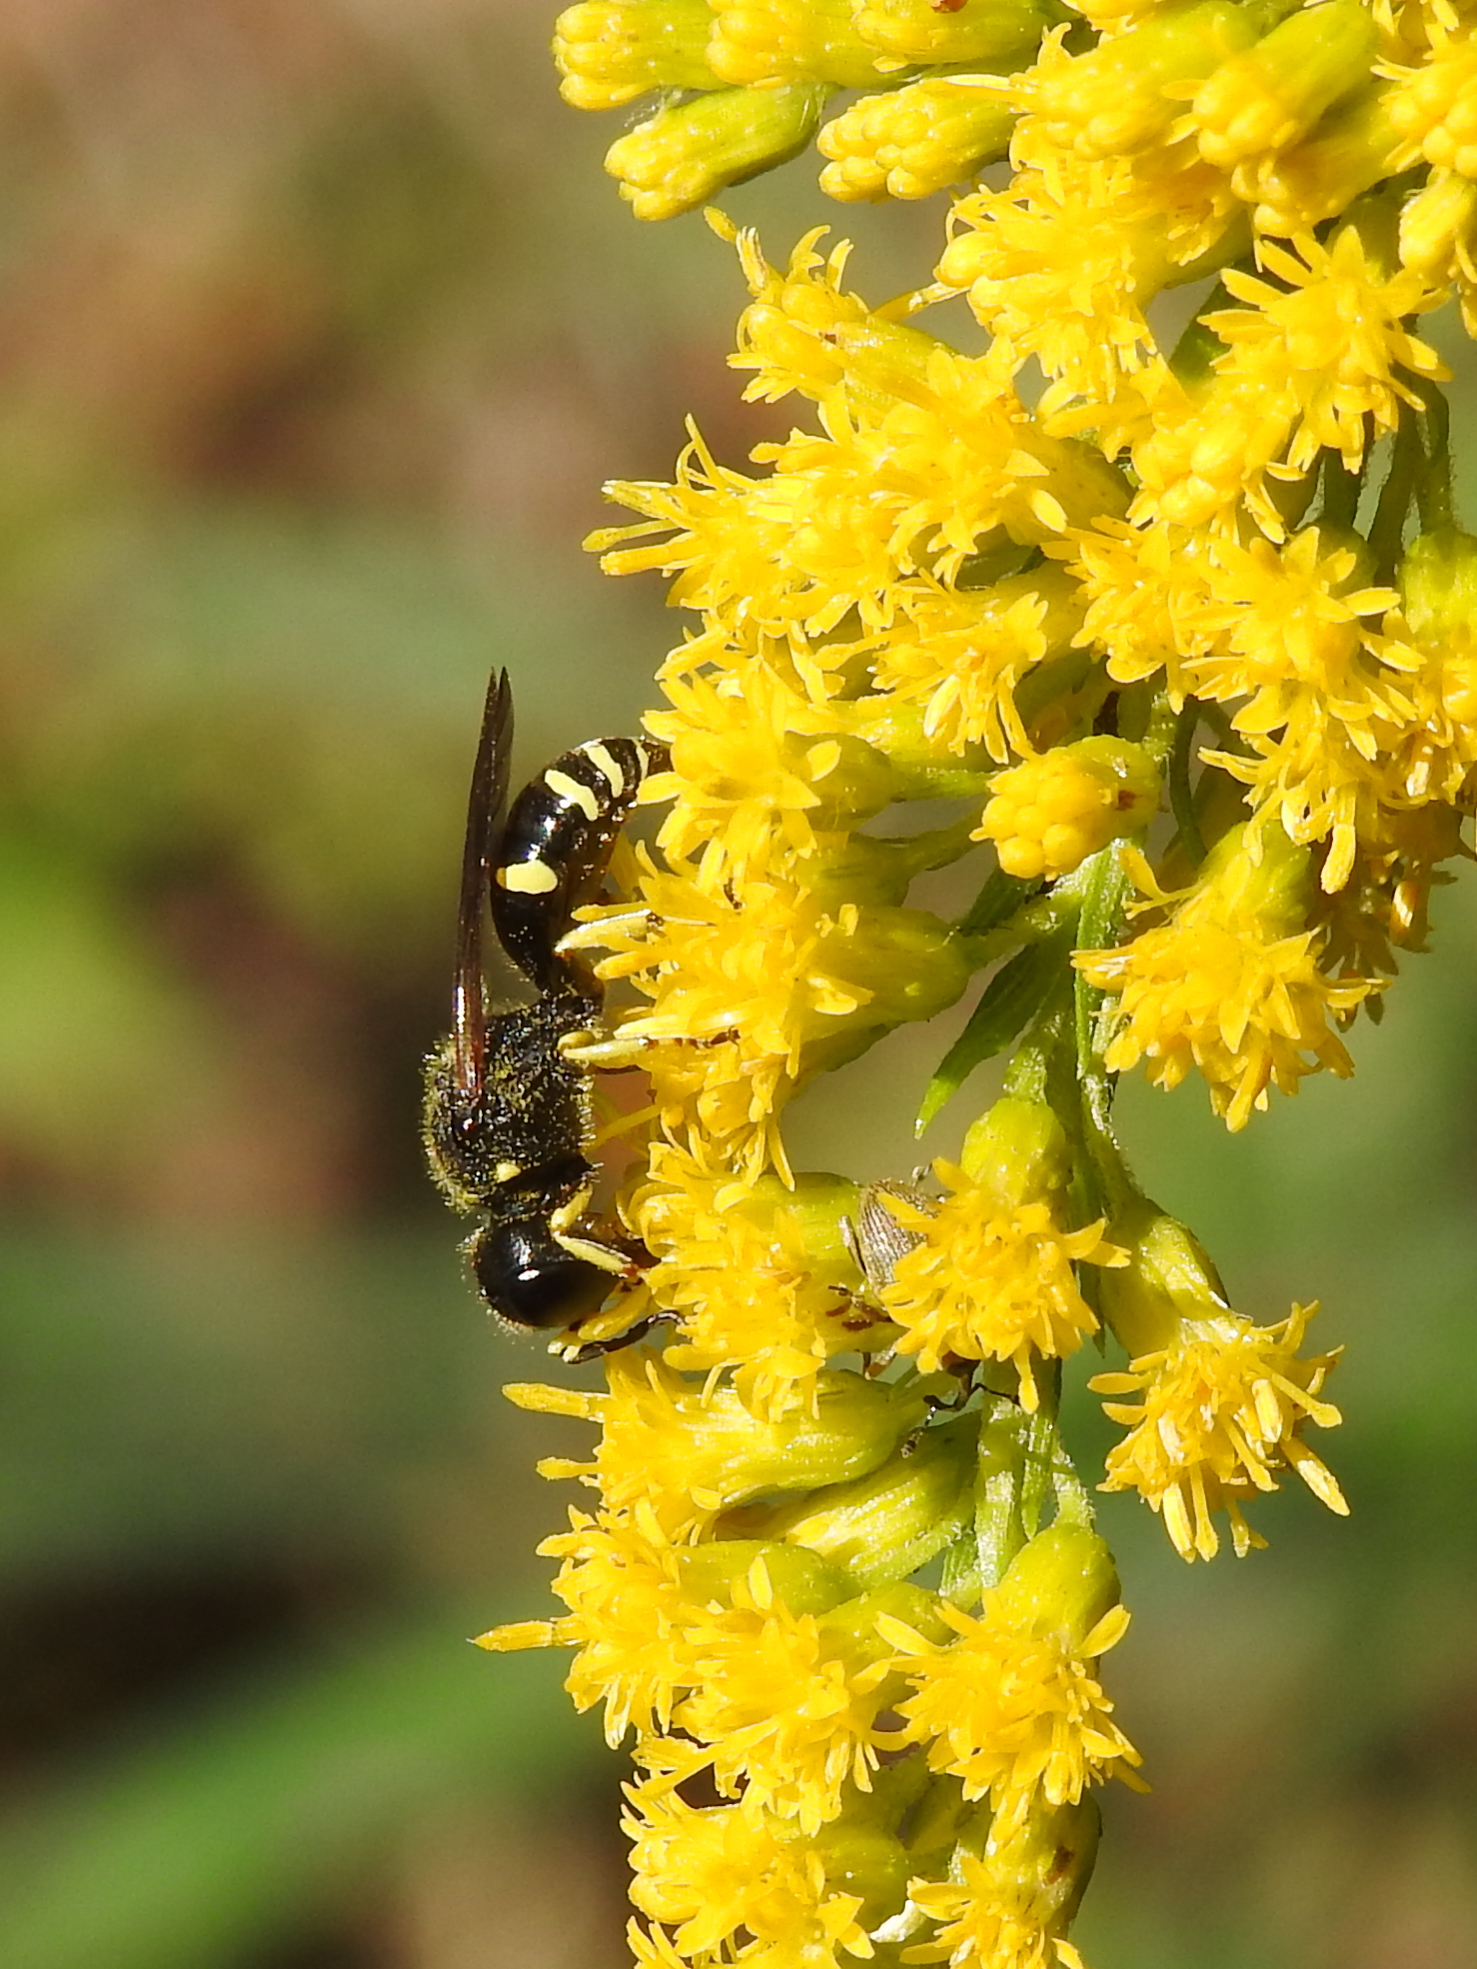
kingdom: Animalia
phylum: Arthropoda
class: Insecta
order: Hymenoptera
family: Crabronidae
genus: Ectemnius
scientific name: Ectemnius continuus
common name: Common ectemnius
